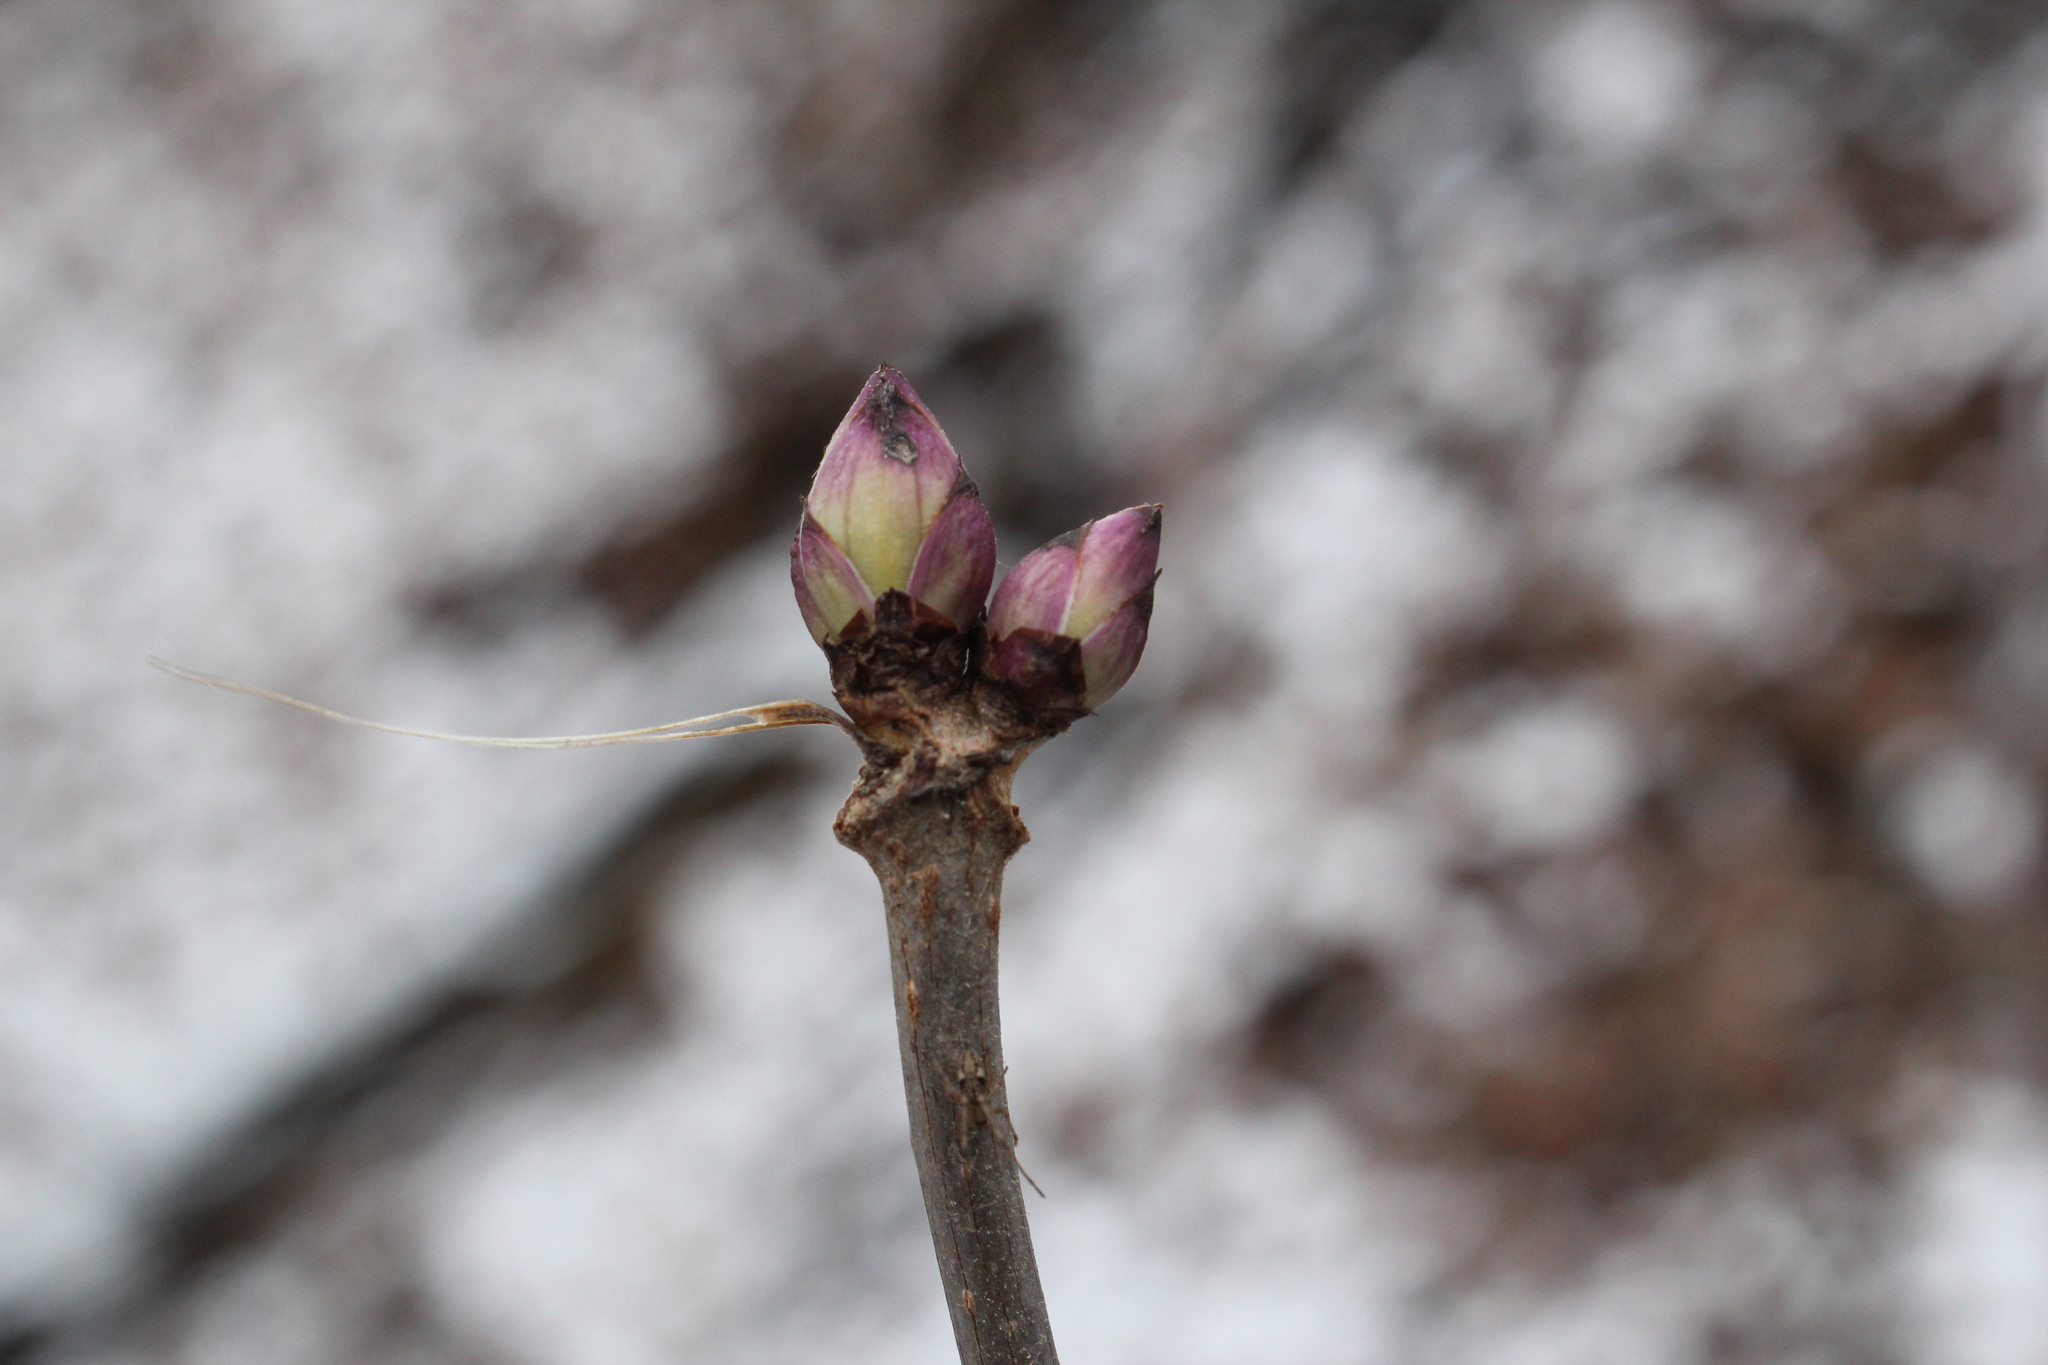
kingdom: Plantae
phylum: Tracheophyta
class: Magnoliopsida
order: Dipsacales
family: Viburnaceae
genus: Sambucus
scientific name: Sambucus racemosa
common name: Red-berried elder
